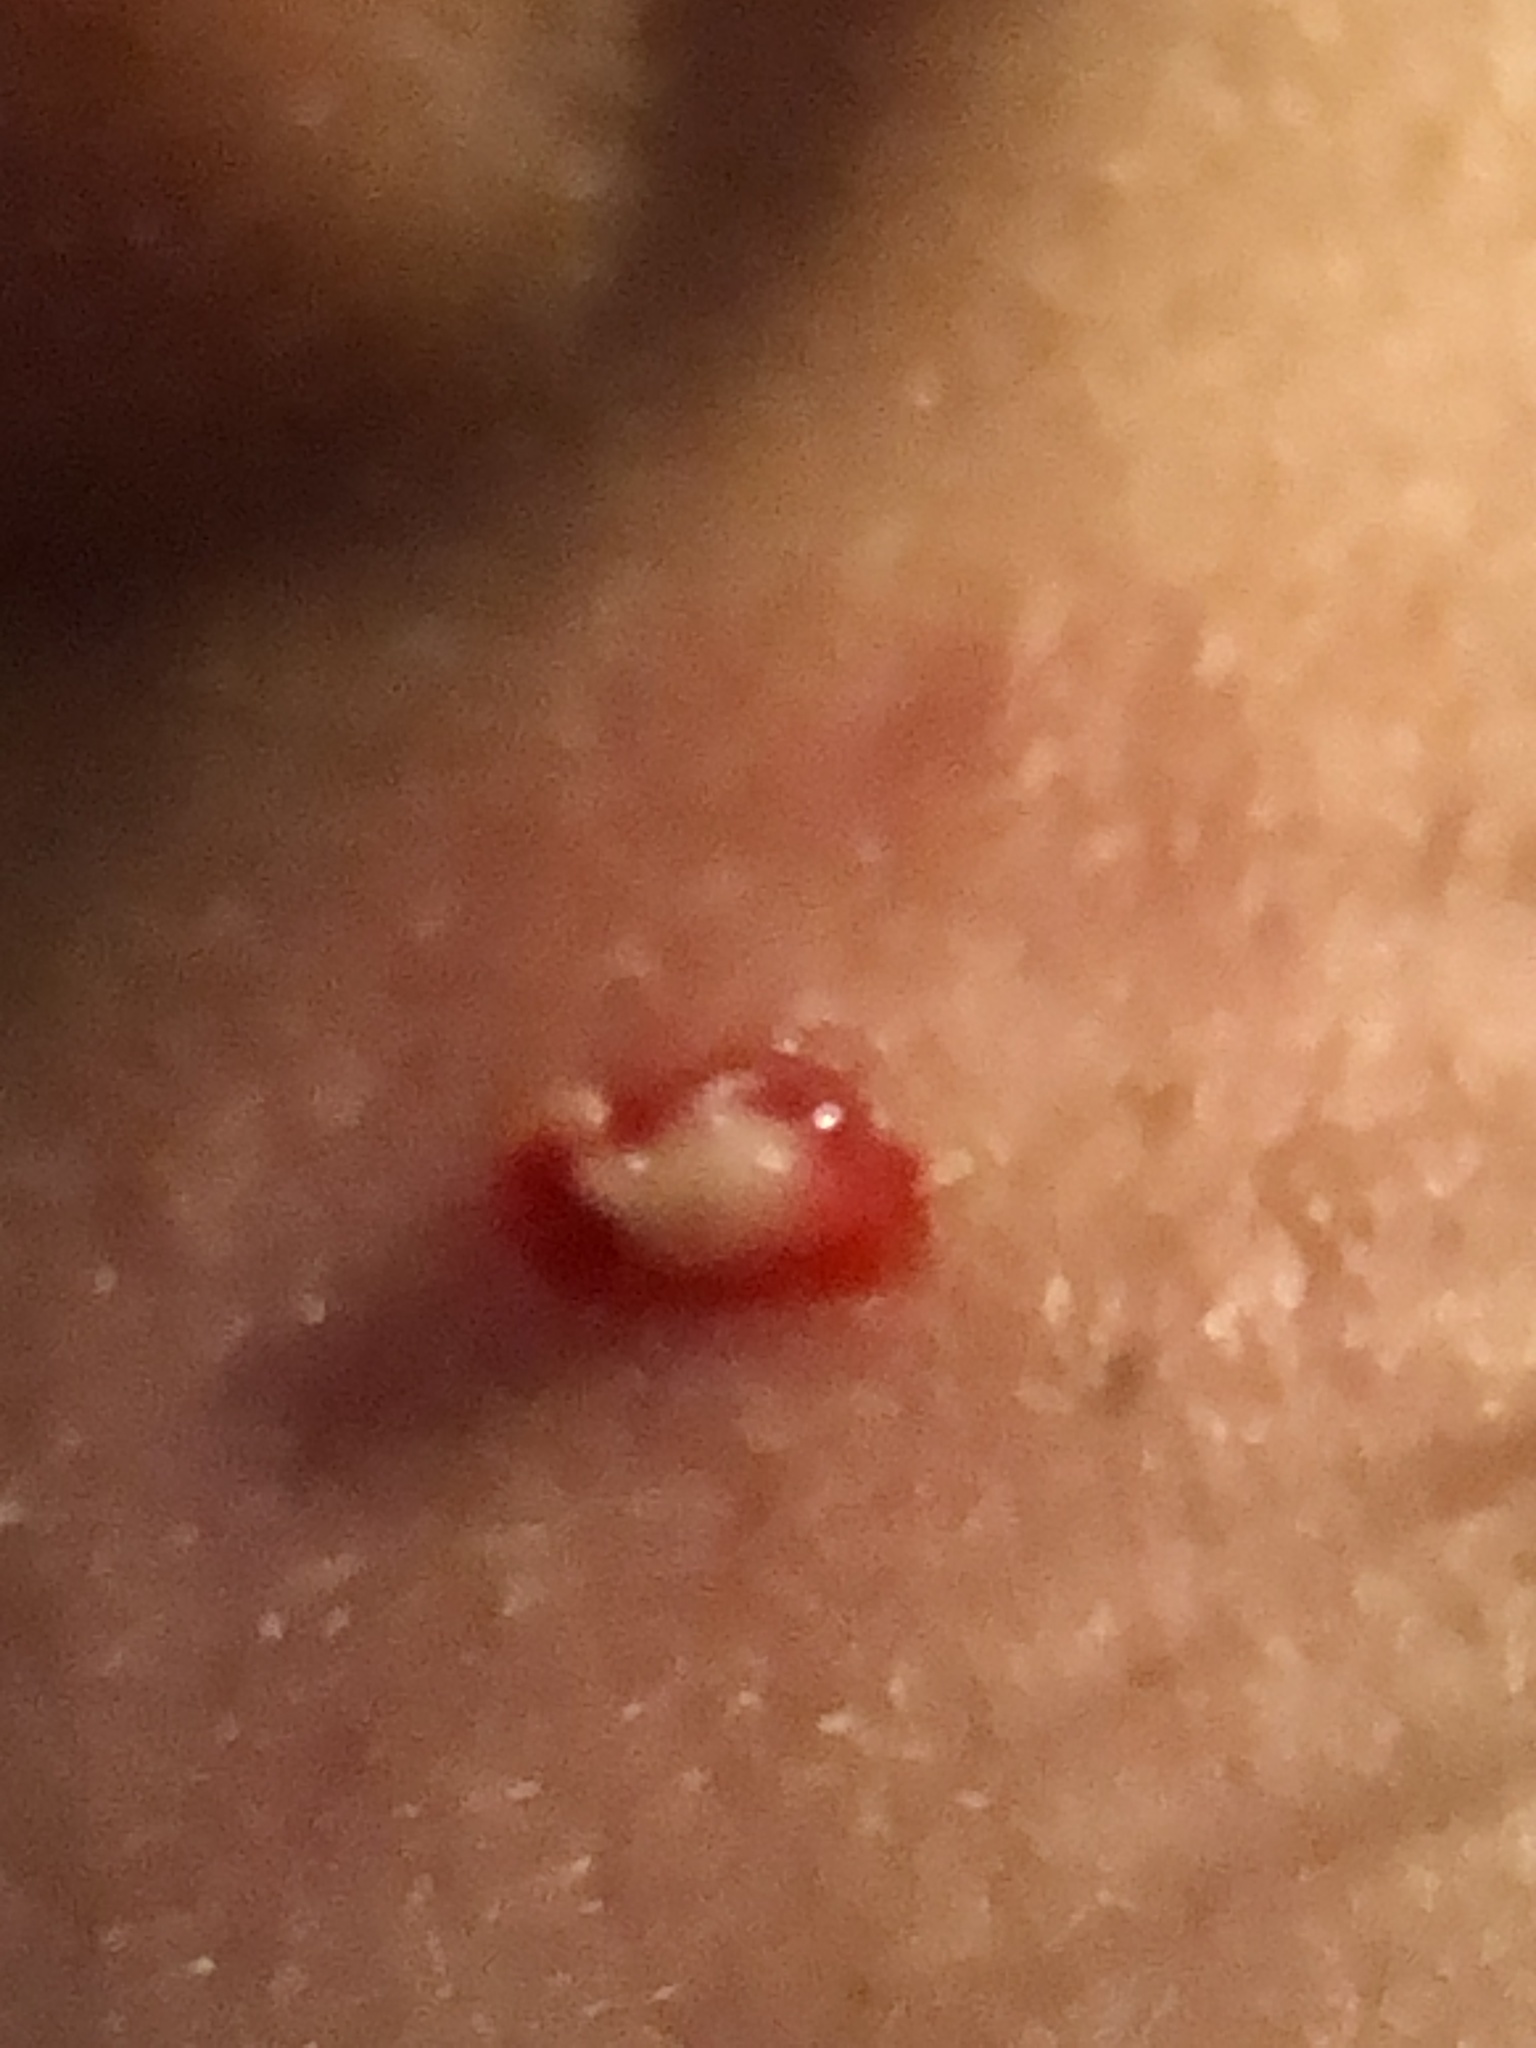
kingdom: Bacteria
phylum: Actinobacteriota
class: Actinomycetia
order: Propionibacteriales
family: Propionibacteriaceae
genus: Cutibacterium
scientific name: Cutibacterium acnes
